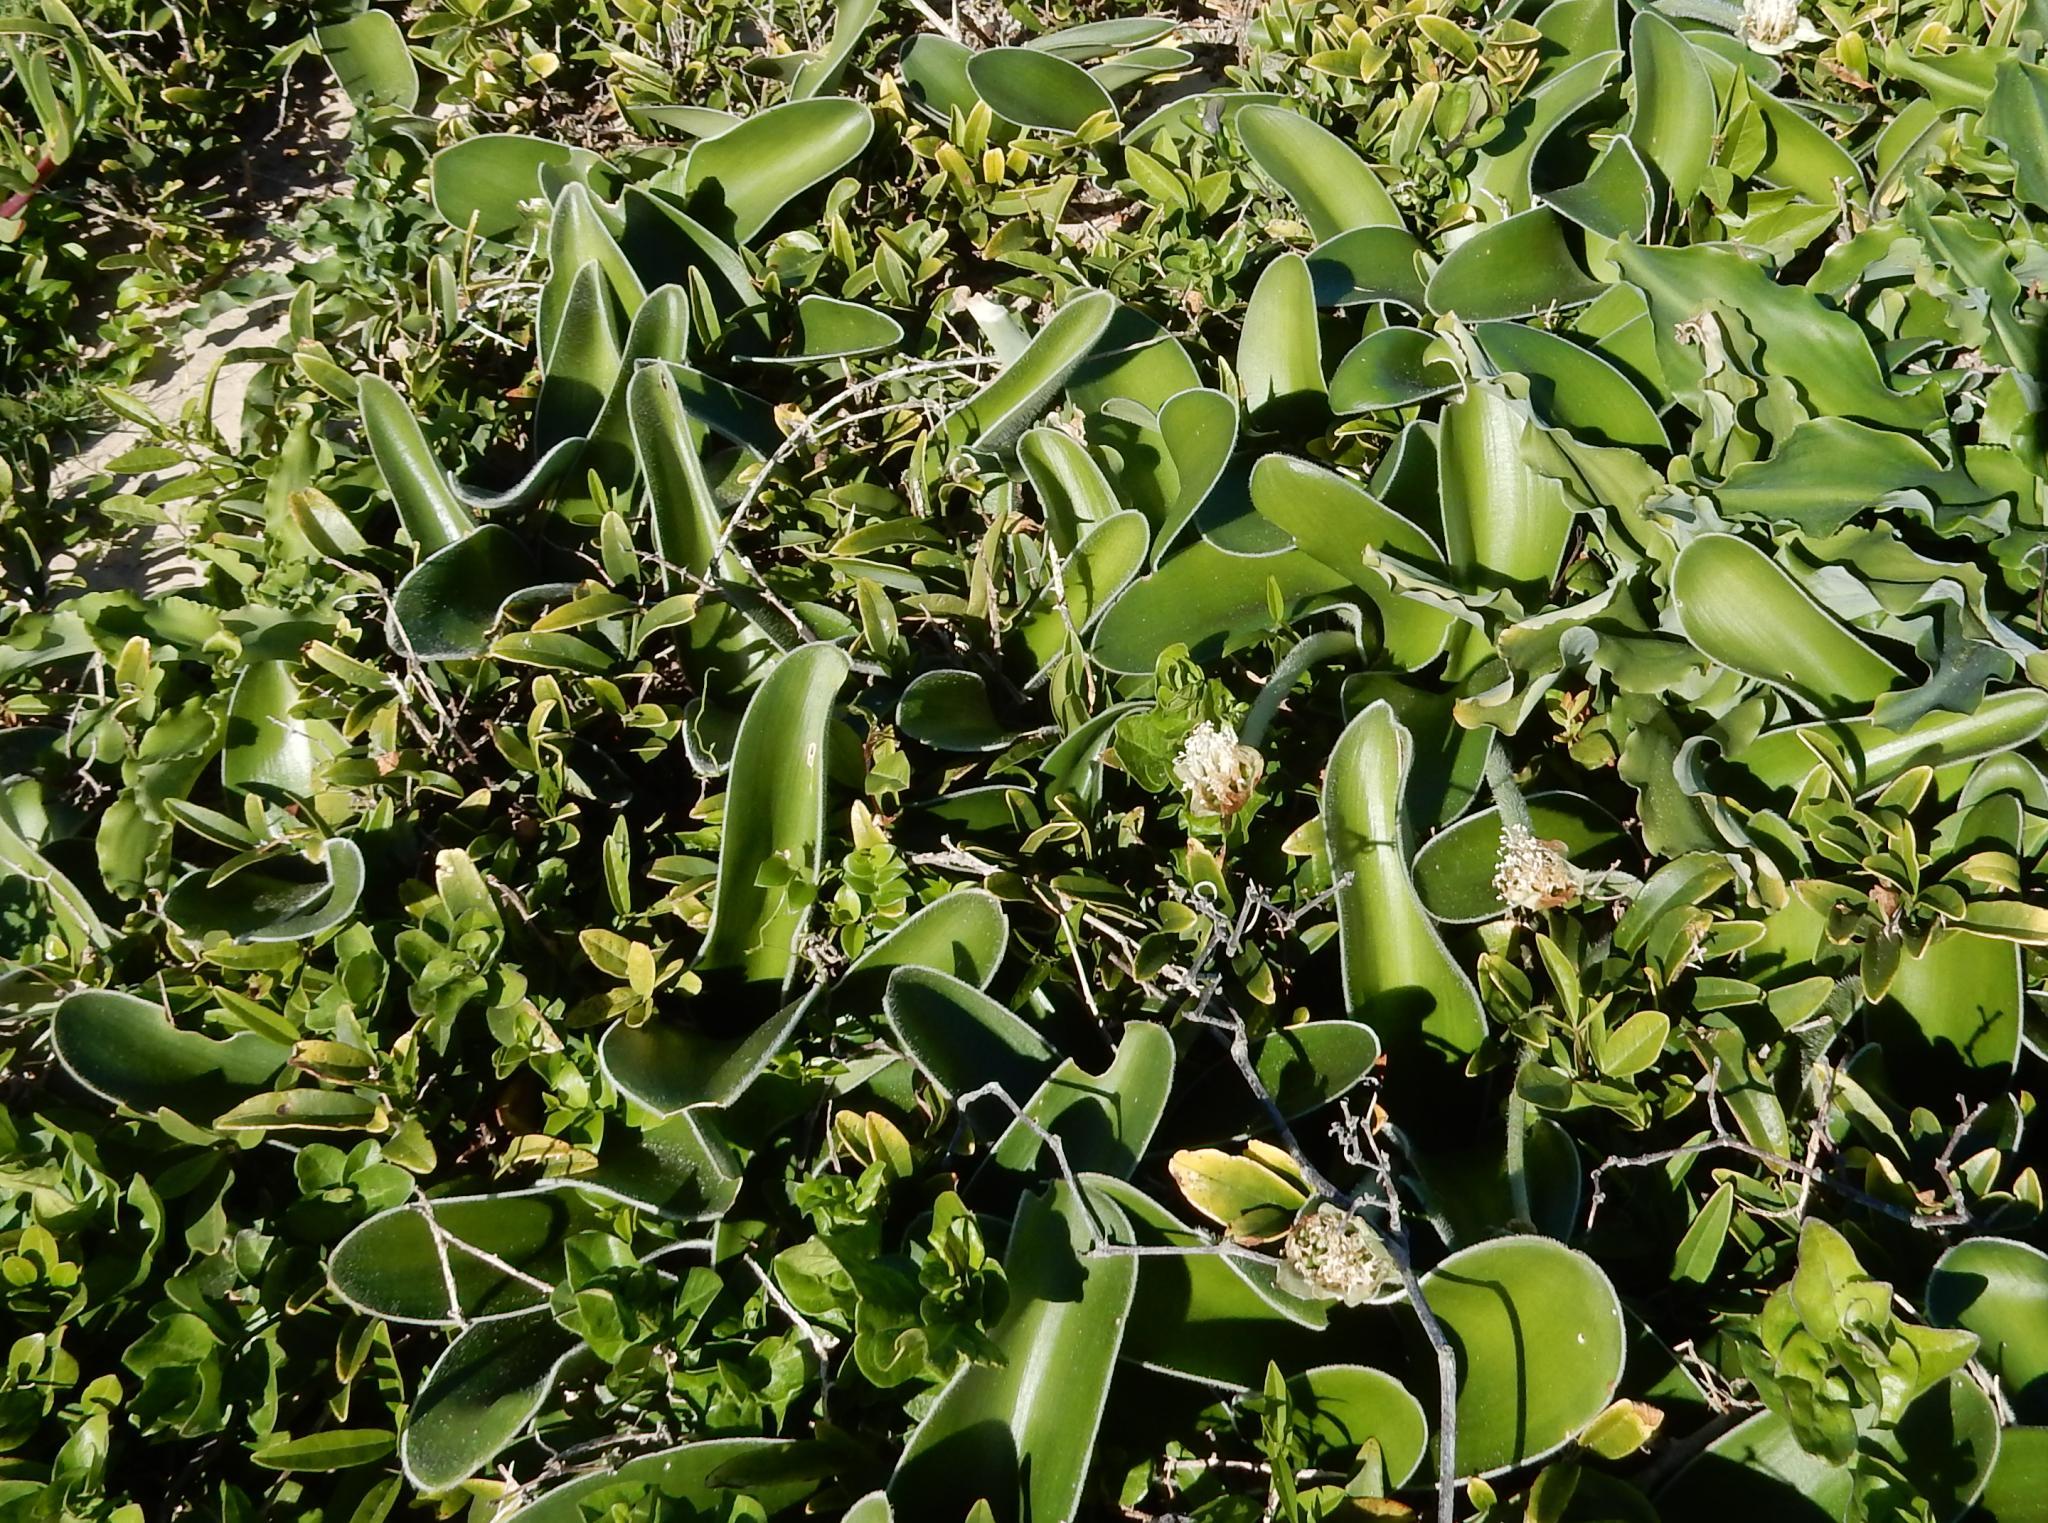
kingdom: Plantae
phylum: Tracheophyta
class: Liliopsida
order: Asparagales
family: Amaryllidaceae
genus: Haemanthus
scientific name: Haemanthus albiflos
